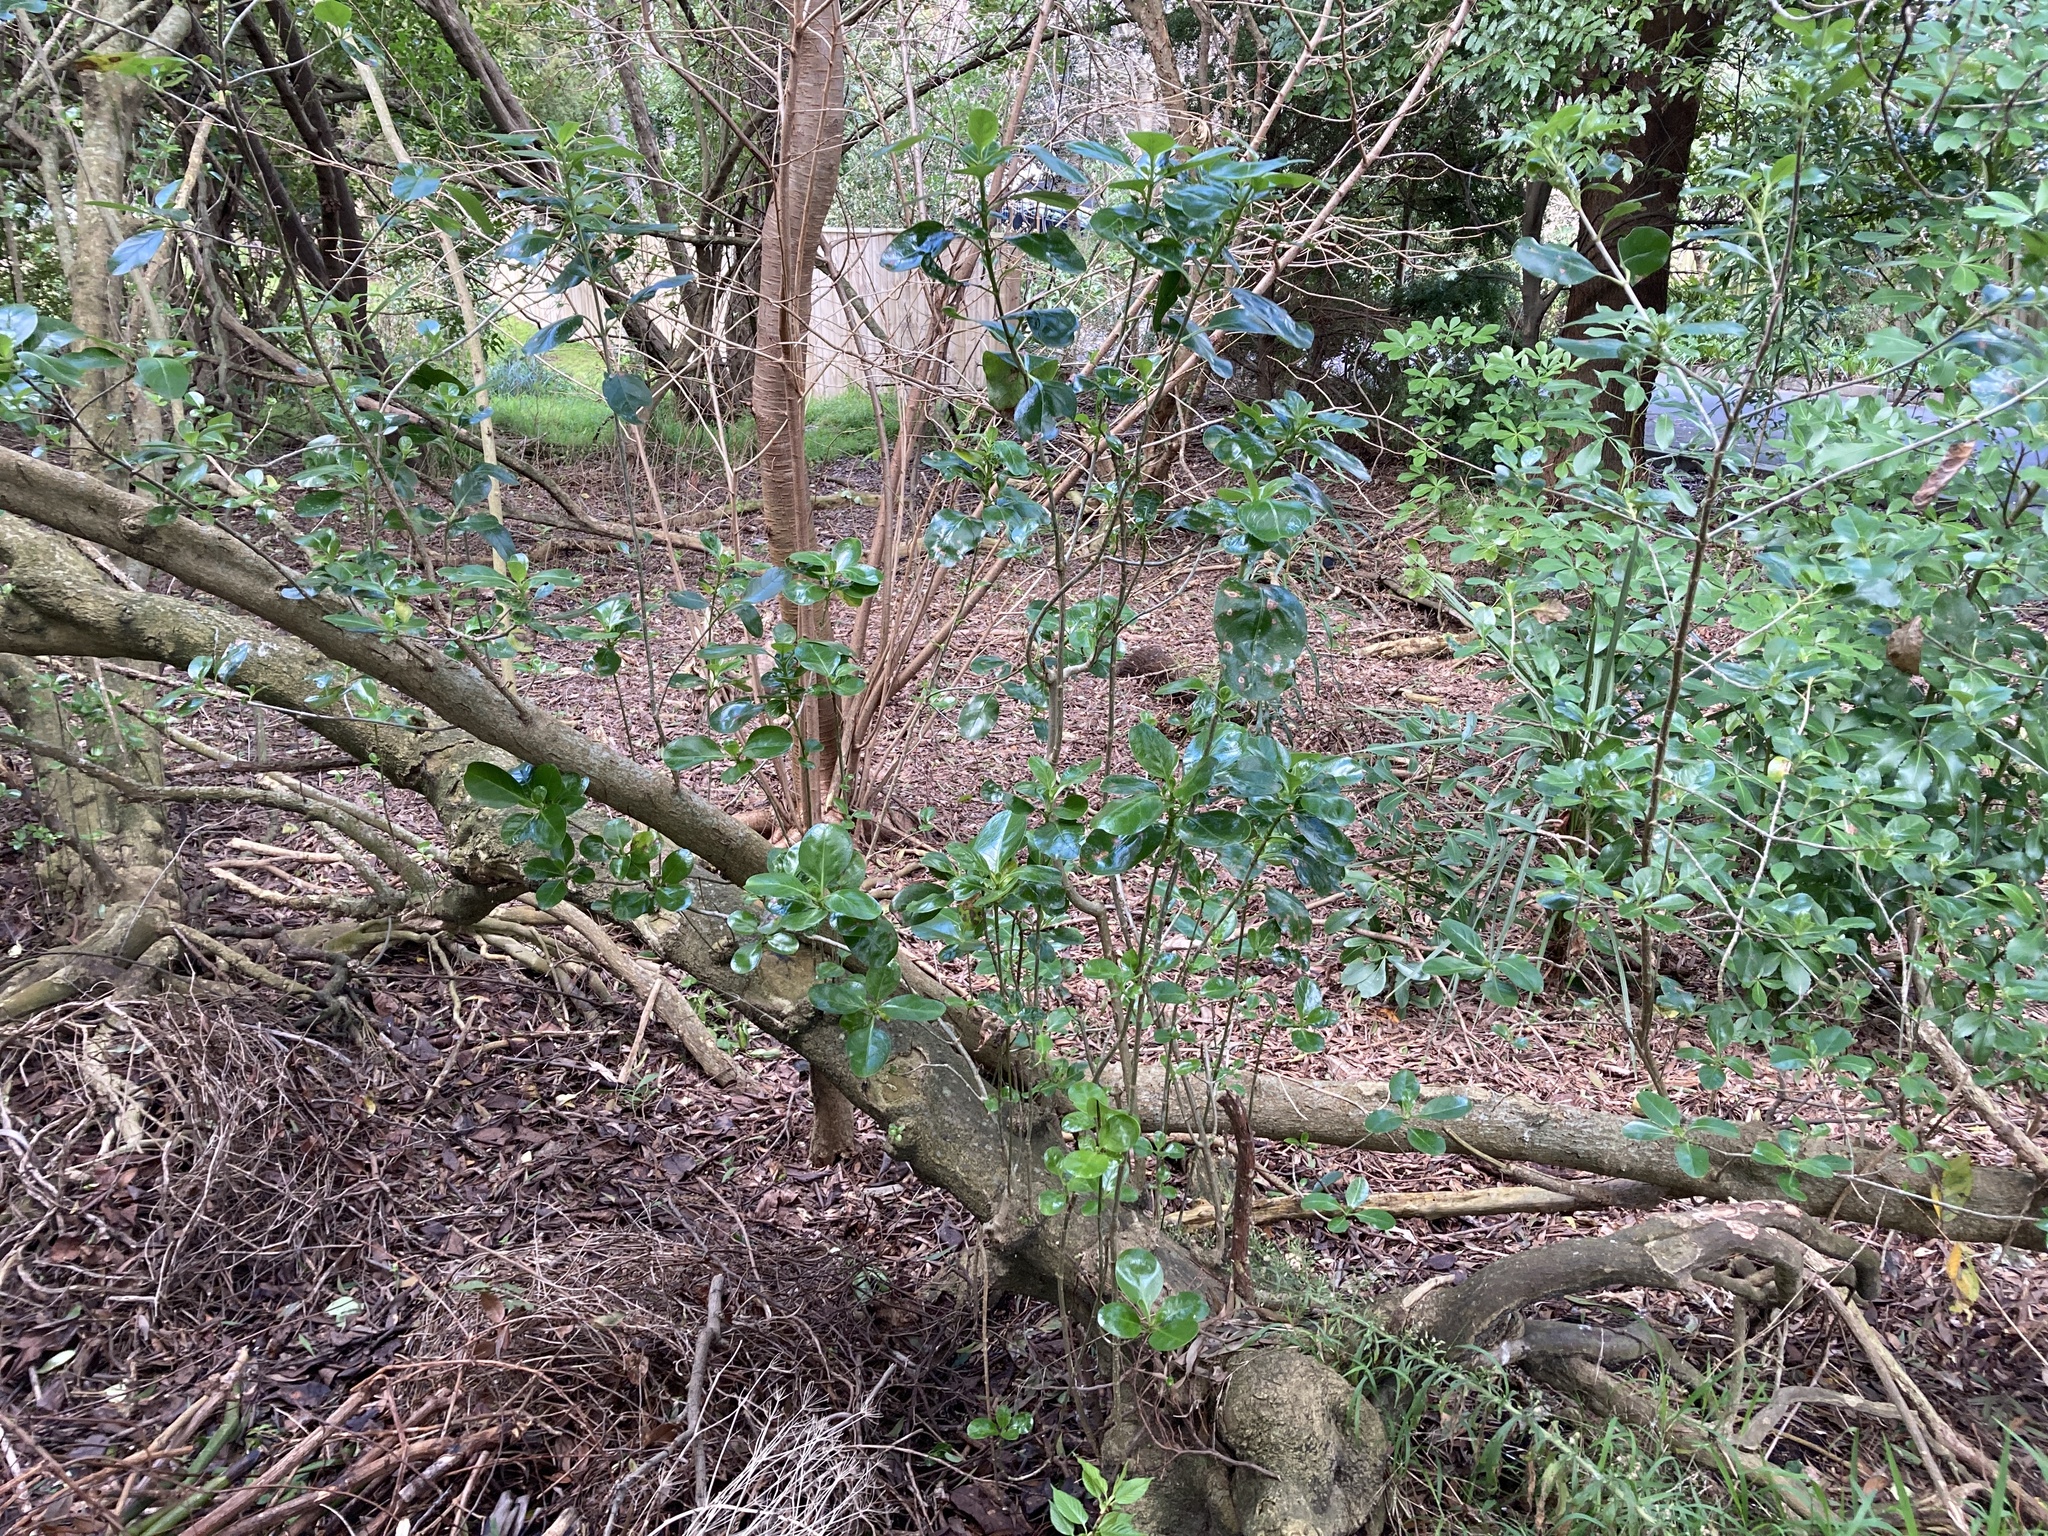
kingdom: Plantae
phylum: Tracheophyta
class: Magnoliopsida
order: Gentianales
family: Rubiaceae
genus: Coprosma
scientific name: Coprosma repens
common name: Tree bedstraw
